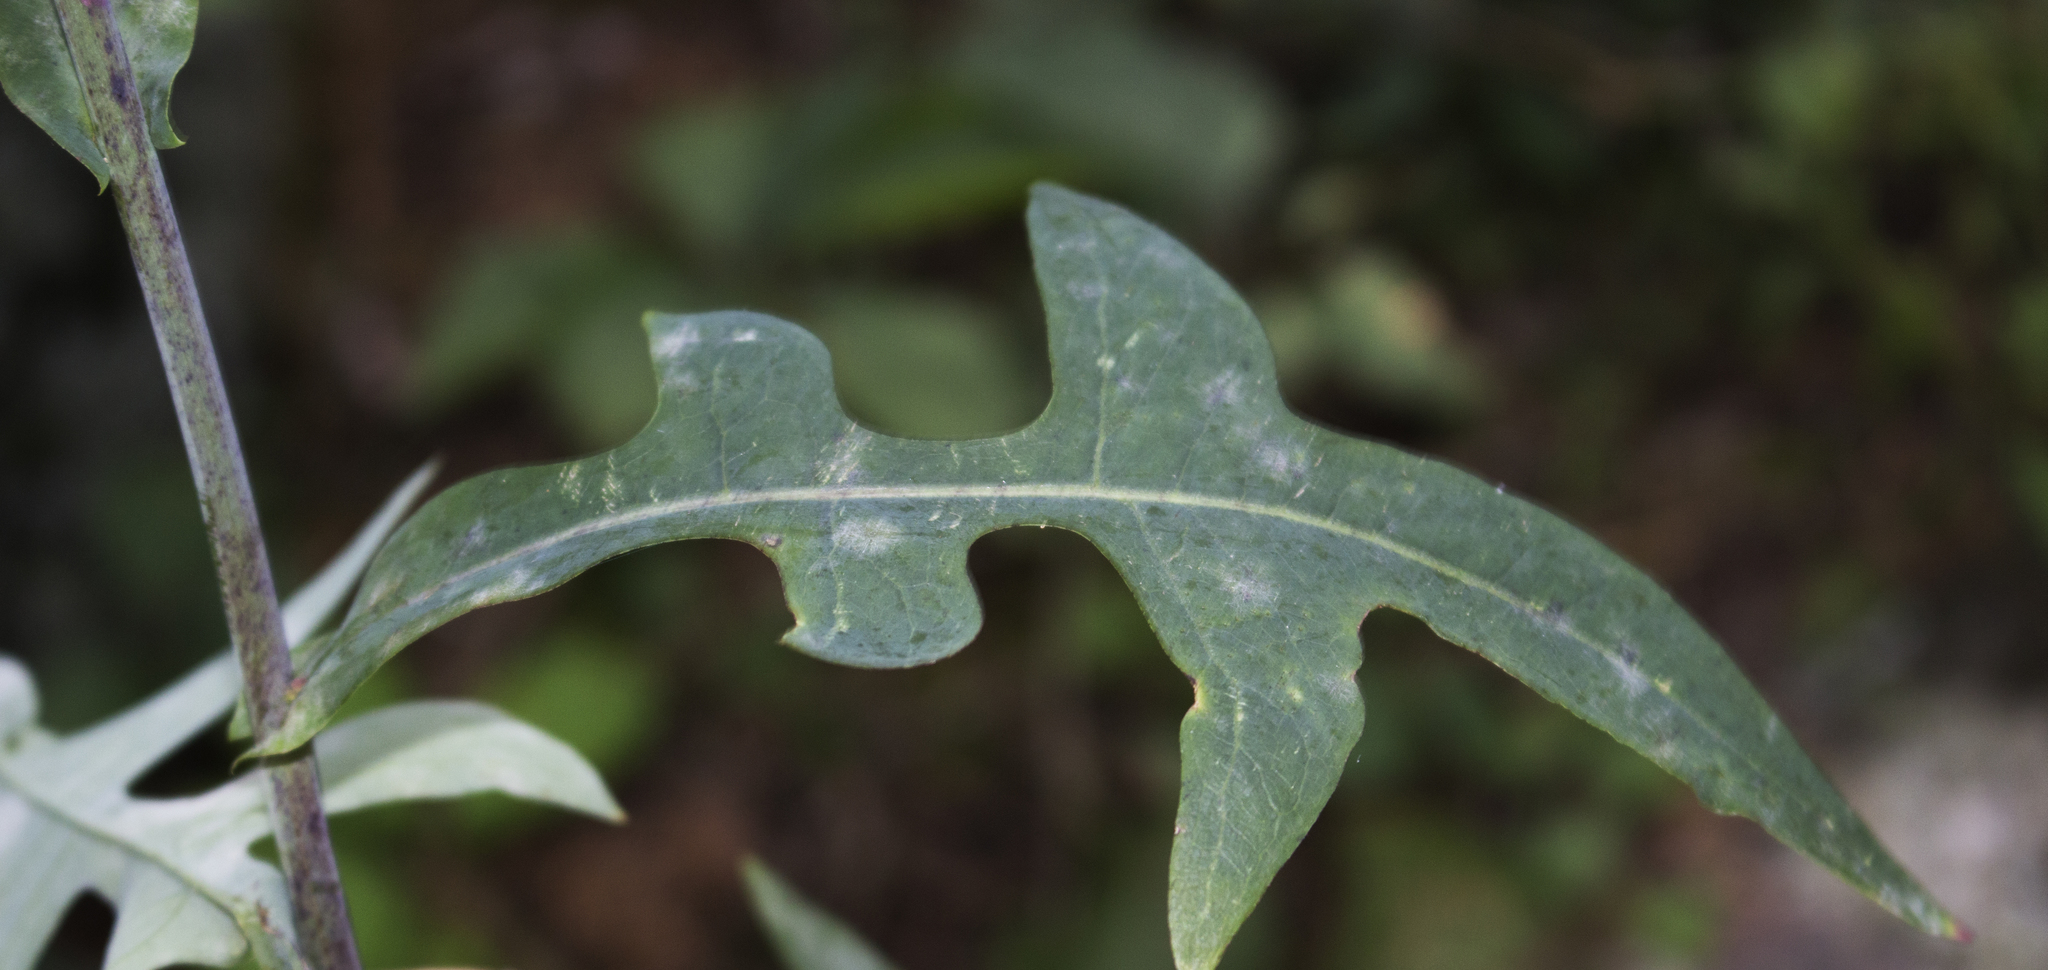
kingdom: Plantae
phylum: Tracheophyta
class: Magnoliopsida
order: Asterales
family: Asteraceae
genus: Lactuca
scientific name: Lactuca canadensis
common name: Canada lettuce
